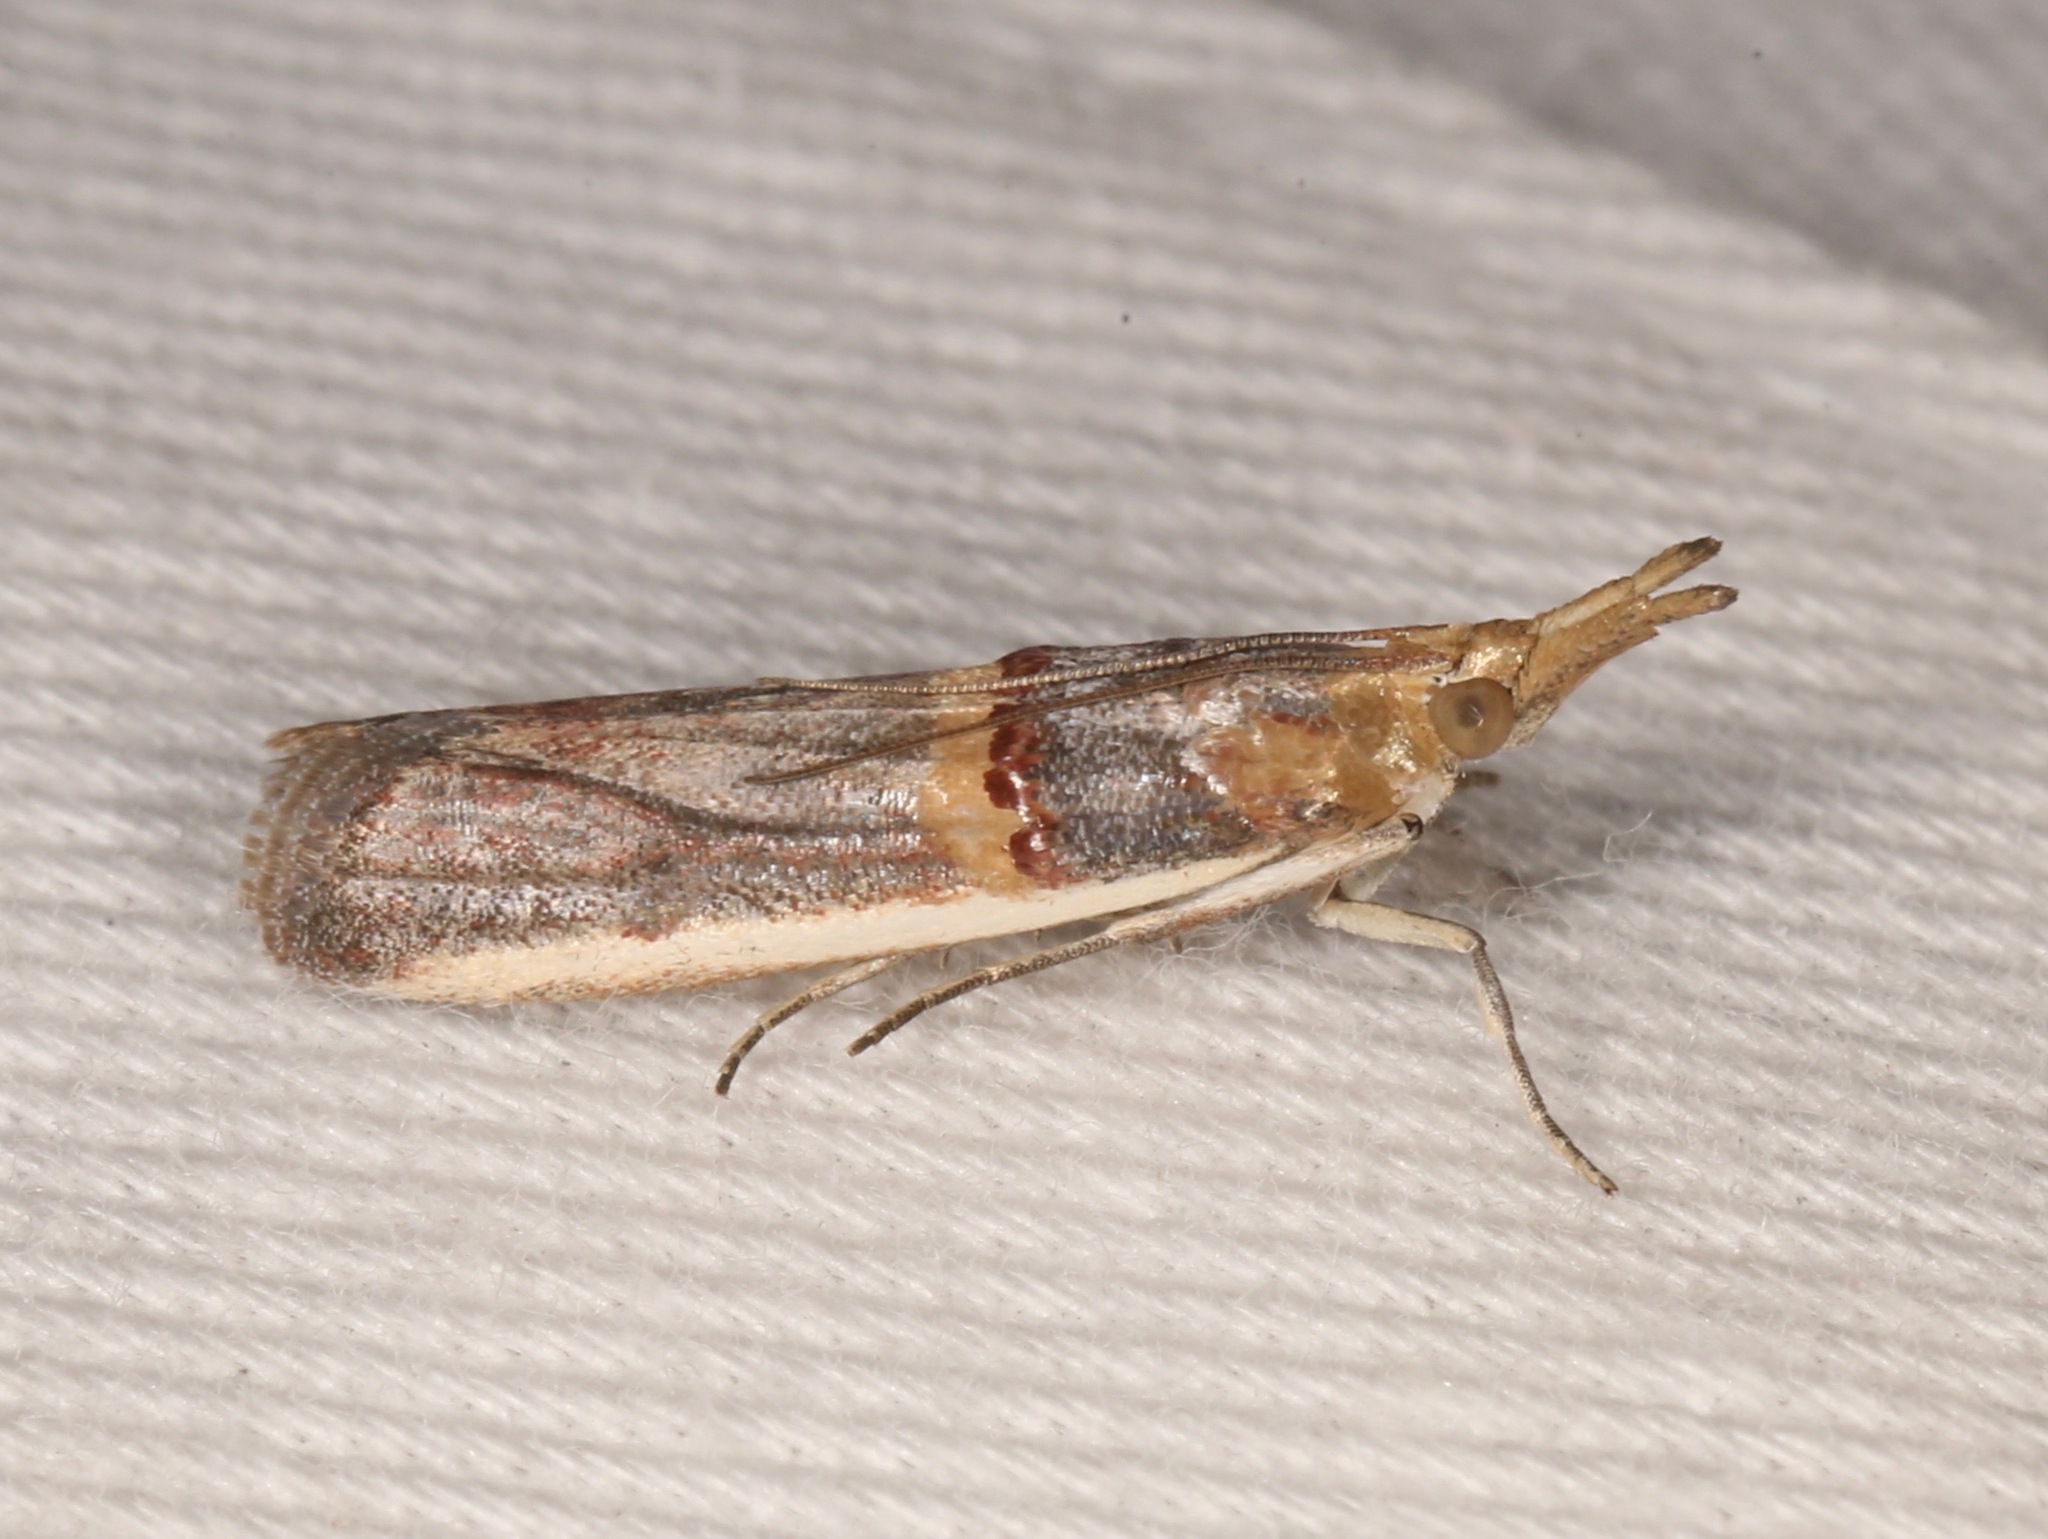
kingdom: Animalia
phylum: Arthropoda
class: Insecta
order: Lepidoptera
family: Pyralidae
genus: Etiella
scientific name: Etiella zinckenella
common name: Gold-banded etiella moth
